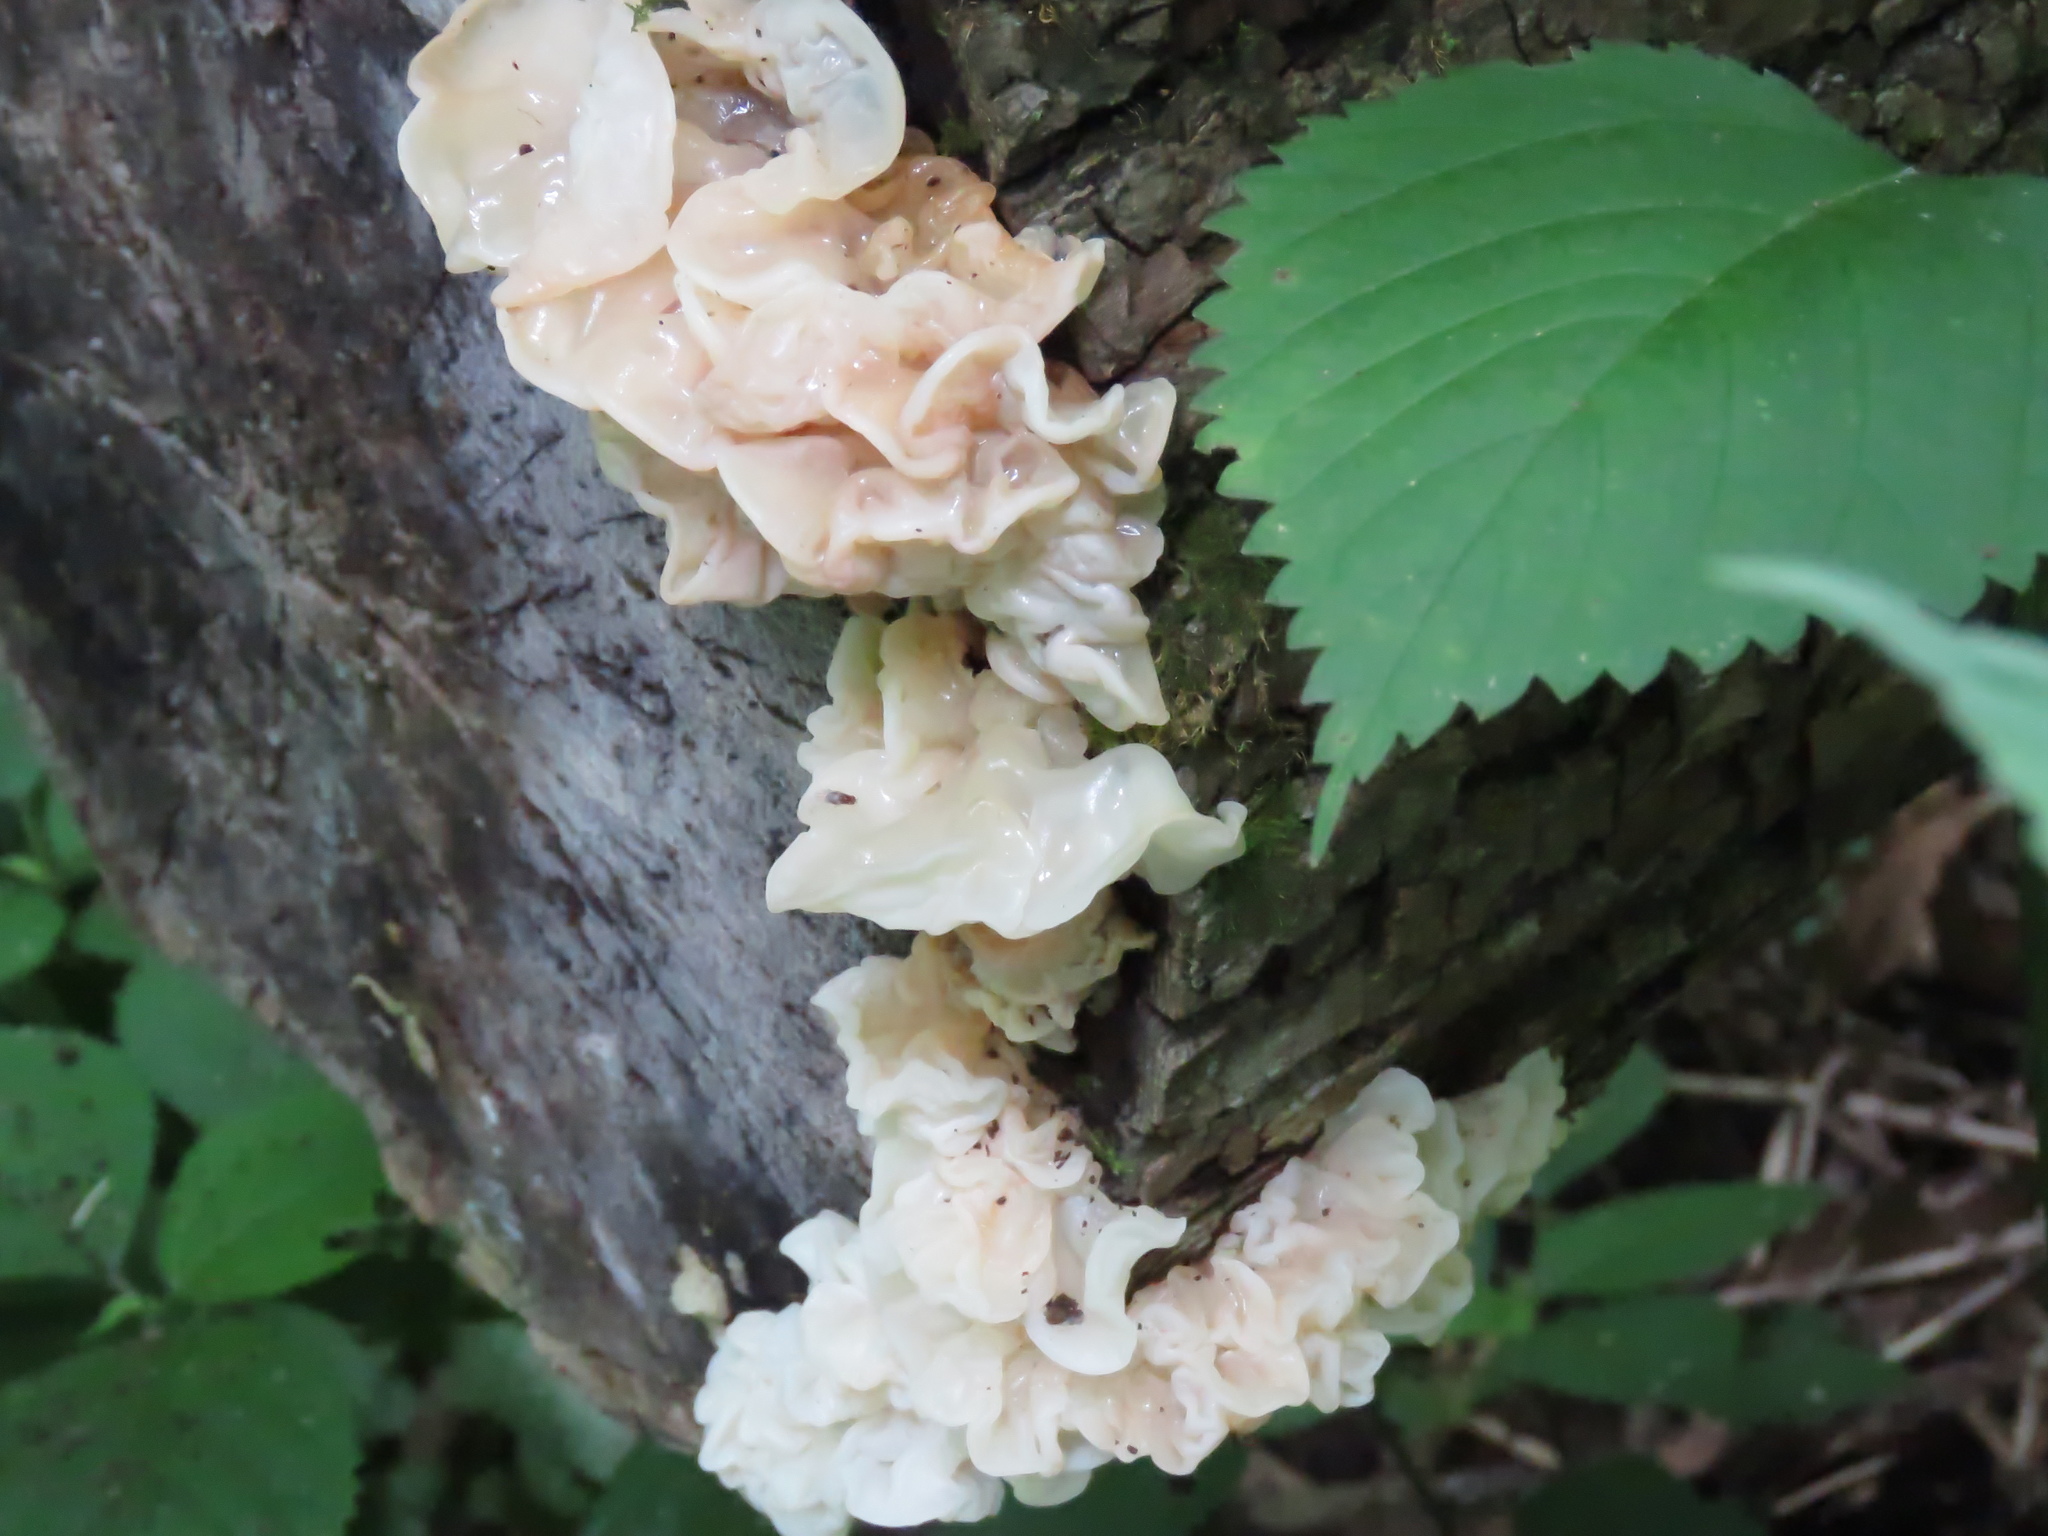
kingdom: Fungi
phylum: Basidiomycota
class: Agaricomycetes
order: Auriculariales
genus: Ductifera
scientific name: Ductifera pululahuana
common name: White jelly fungus
